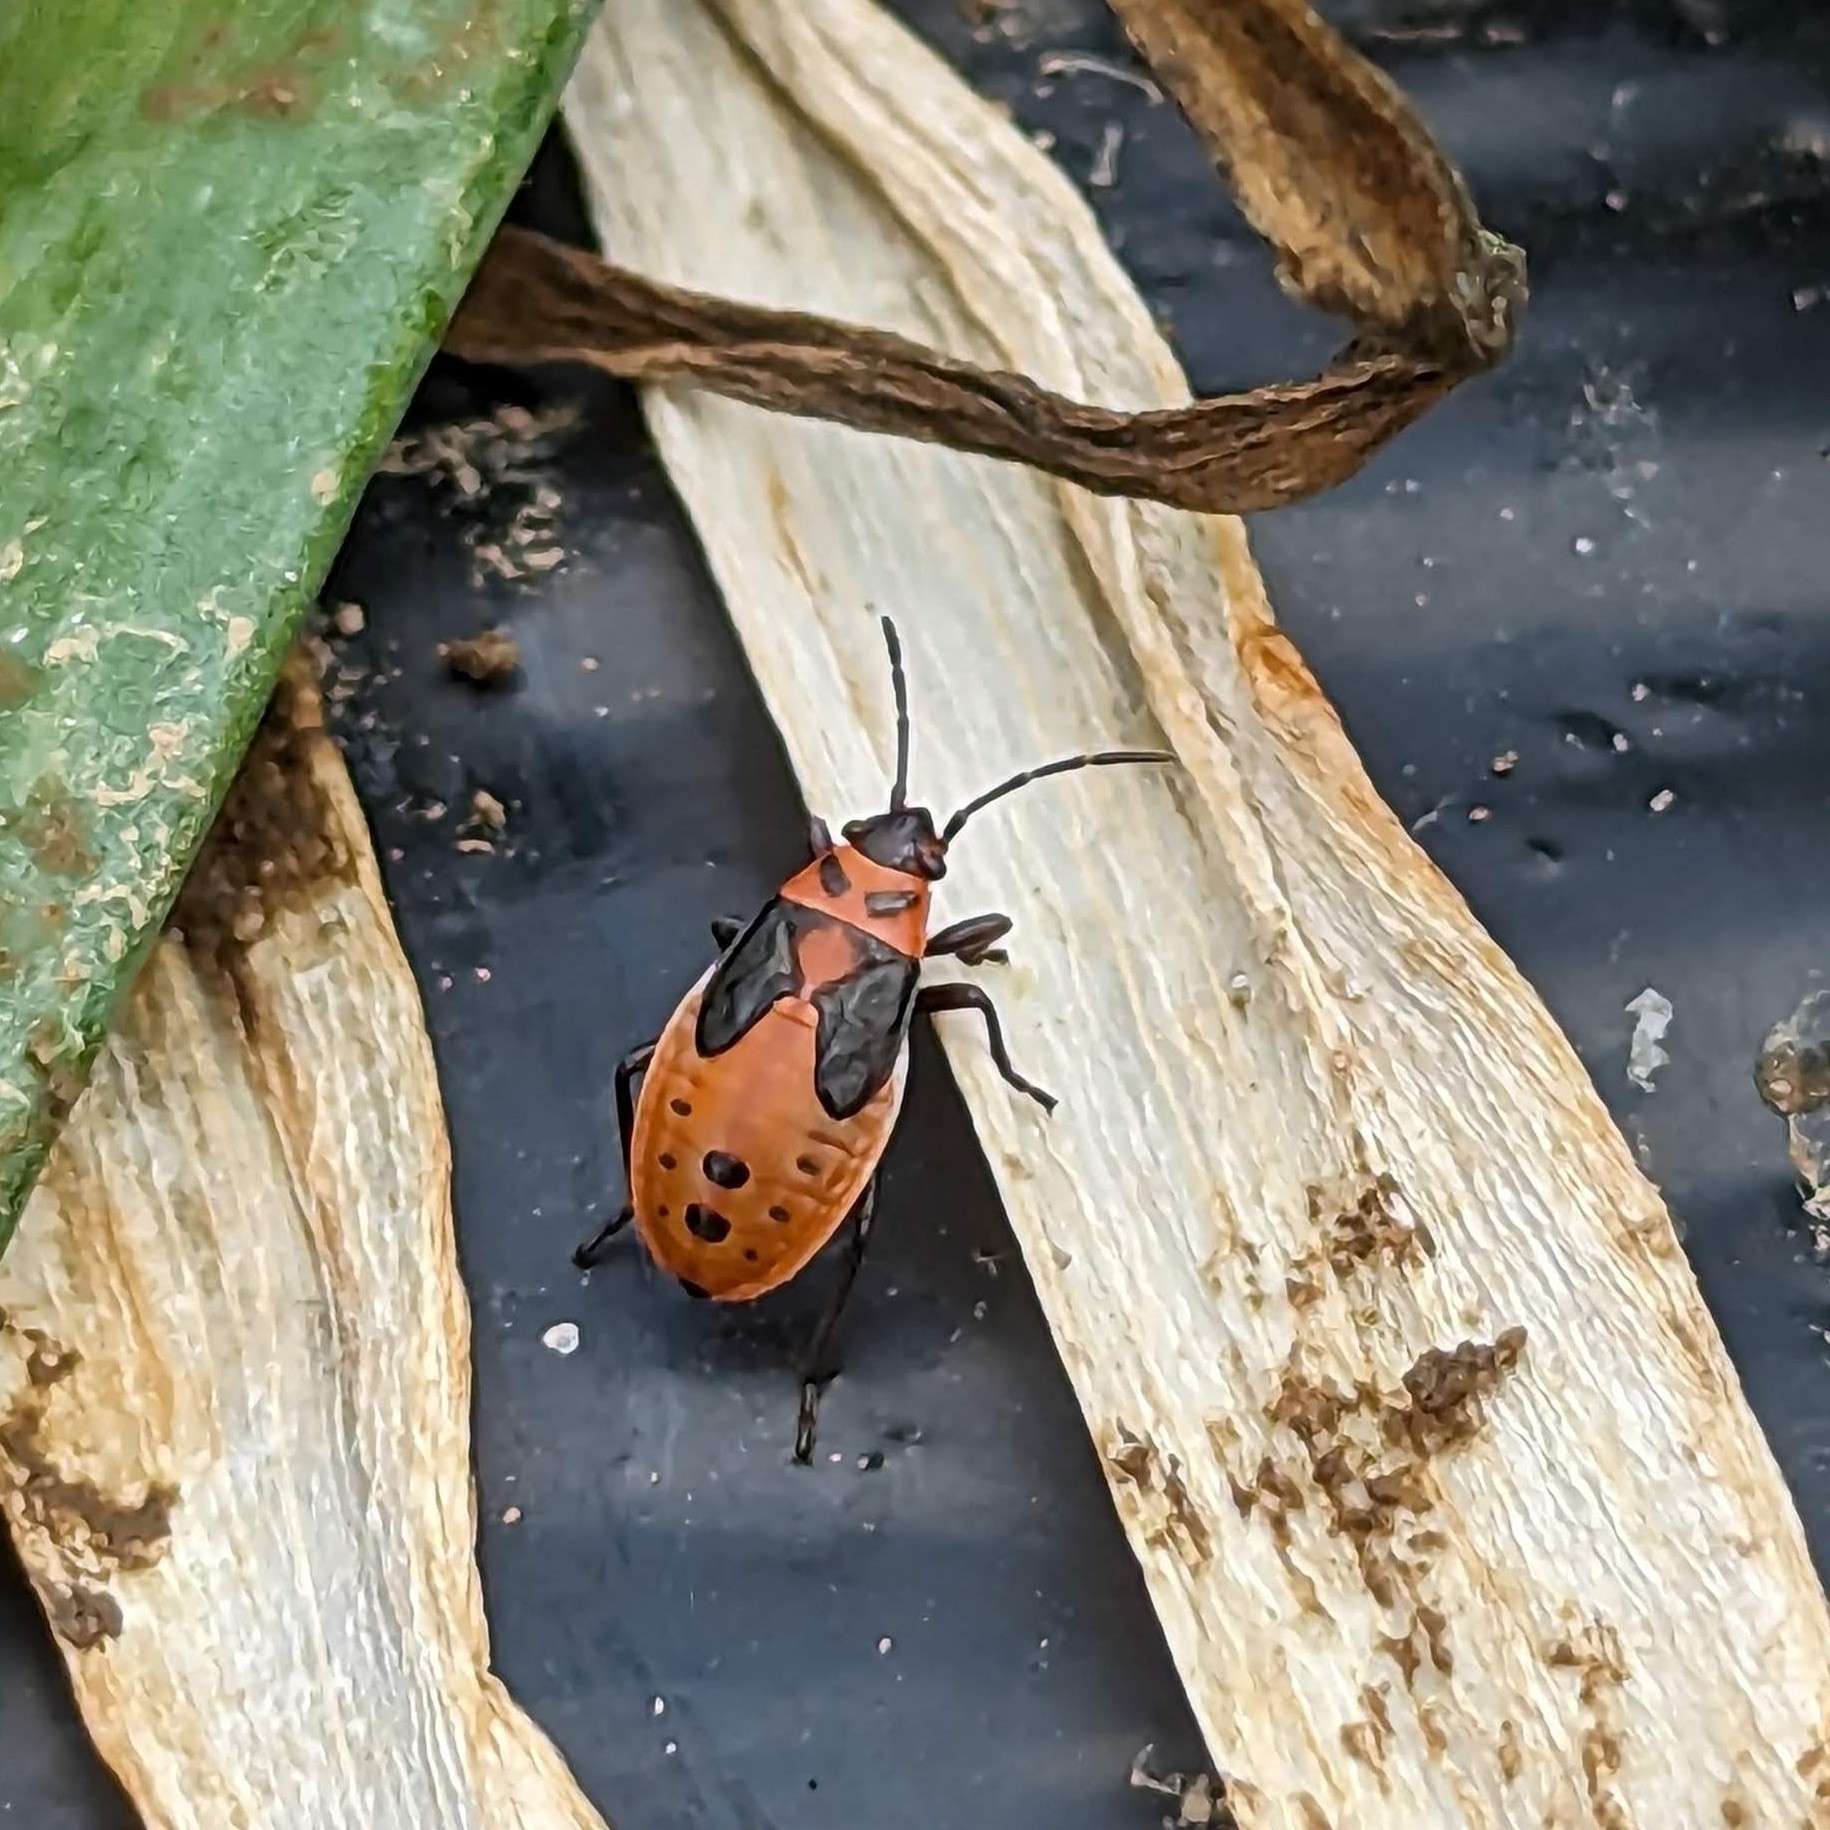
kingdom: Animalia
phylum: Arthropoda
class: Insecta
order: Hemiptera
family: Lygaeidae
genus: Lygaeus
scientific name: Lygaeus kalmii
